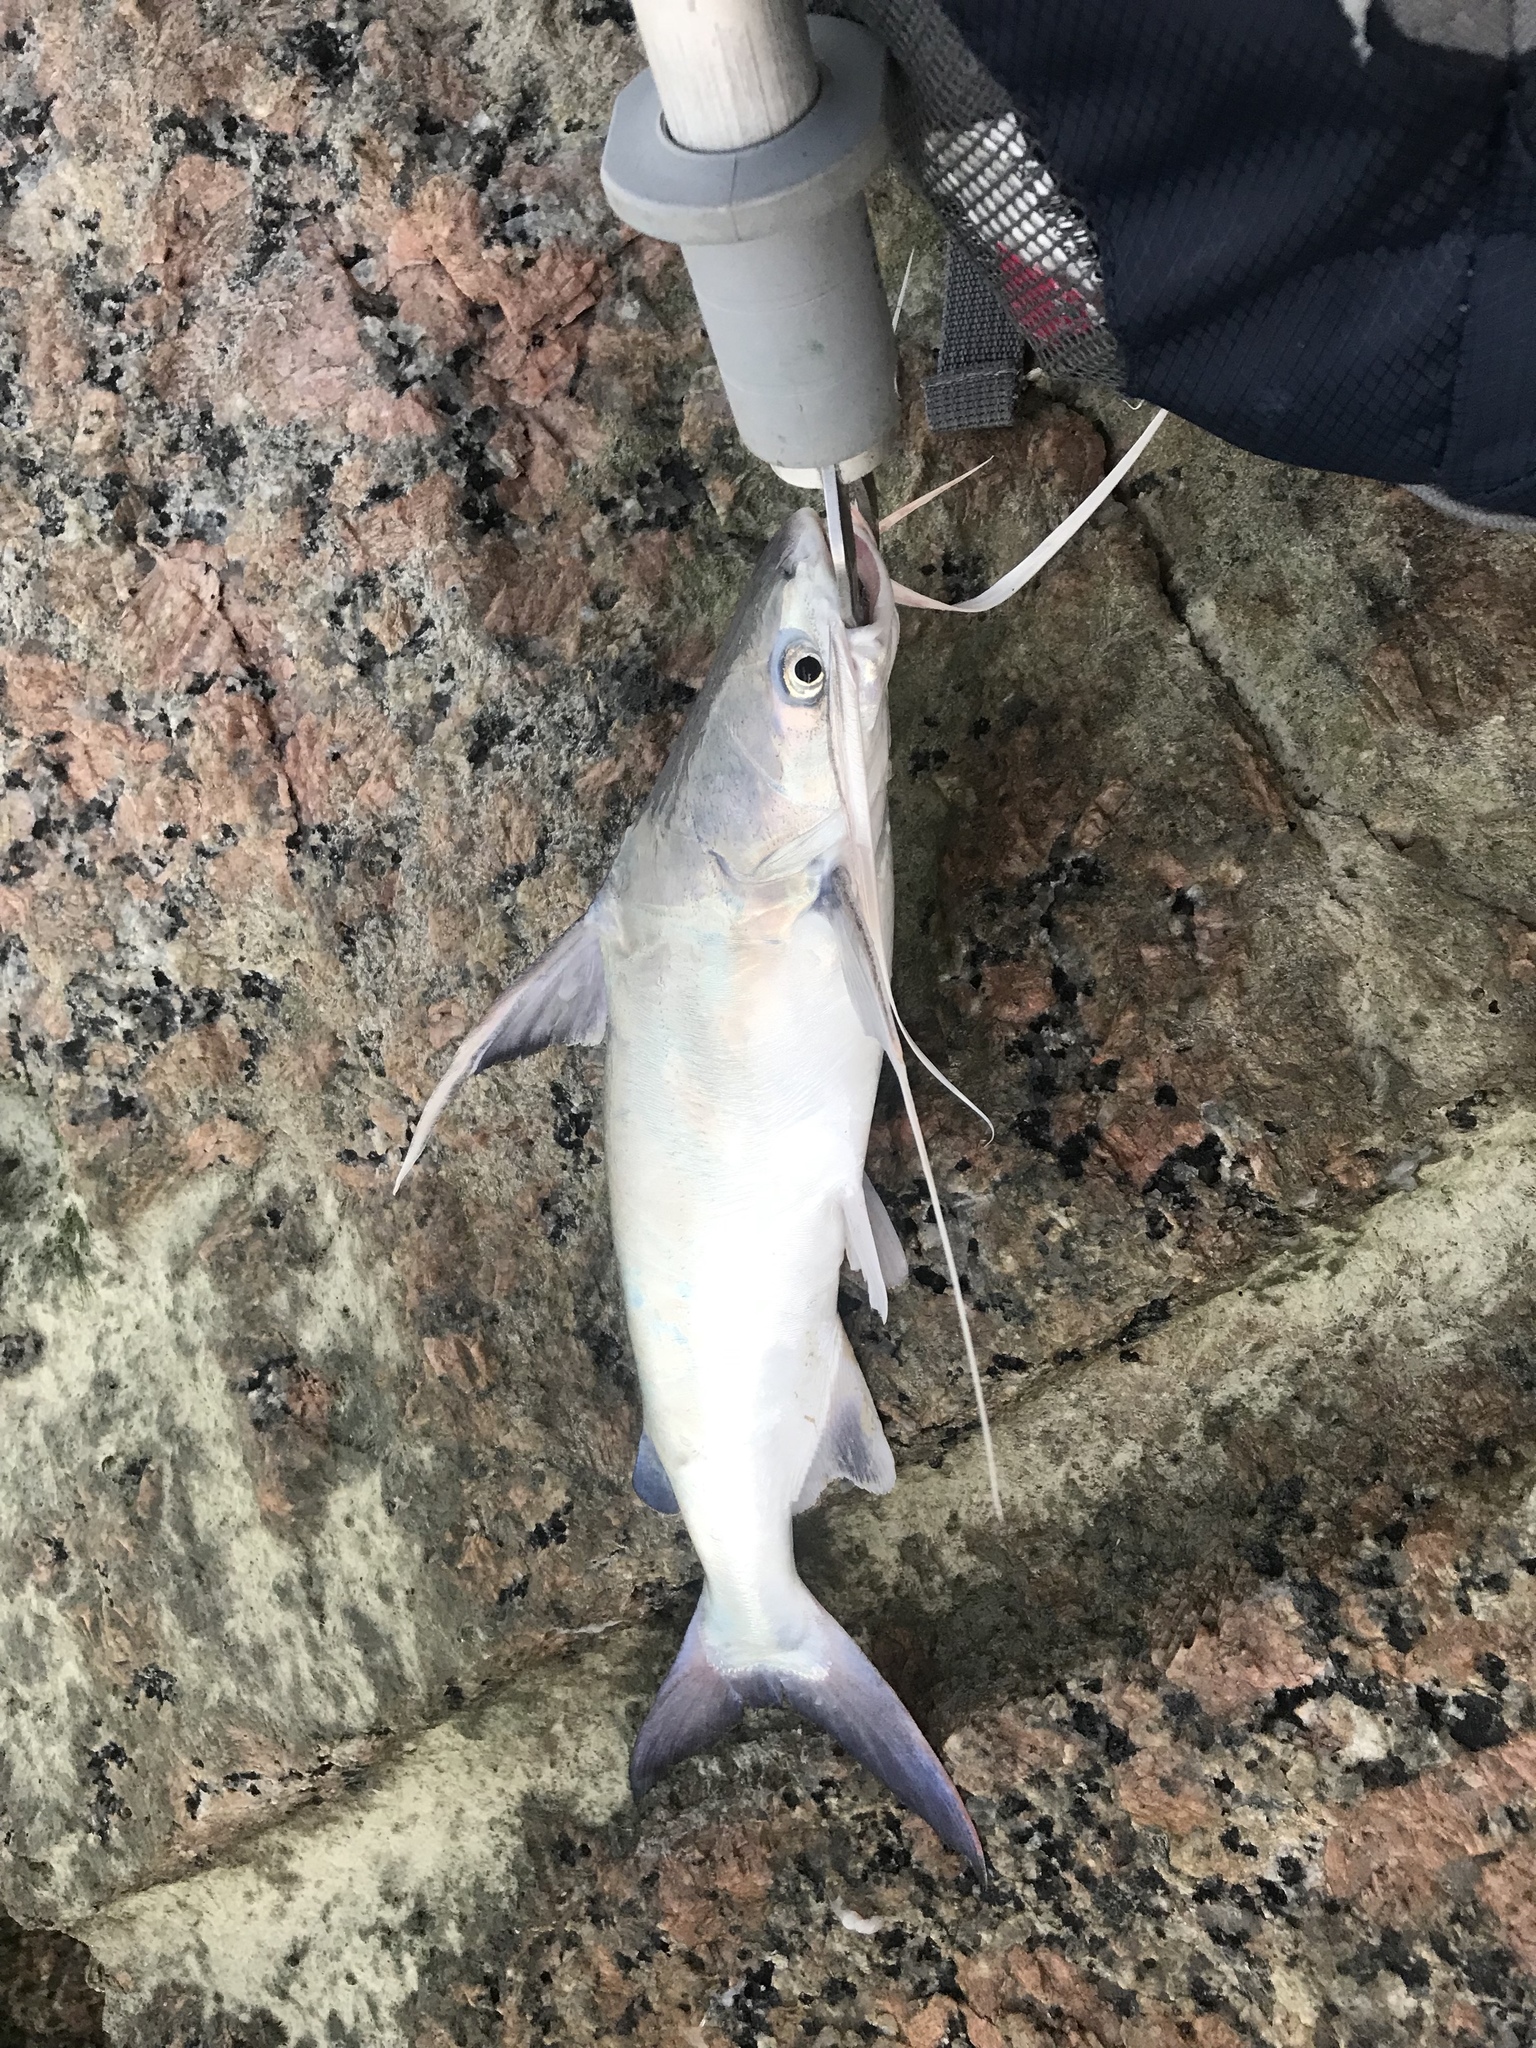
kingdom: Animalia
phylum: Chordata
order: Siluriformes
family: Ariidae
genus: Bagre
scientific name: Bagre marinus
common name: Gafftopsail sea catfish
